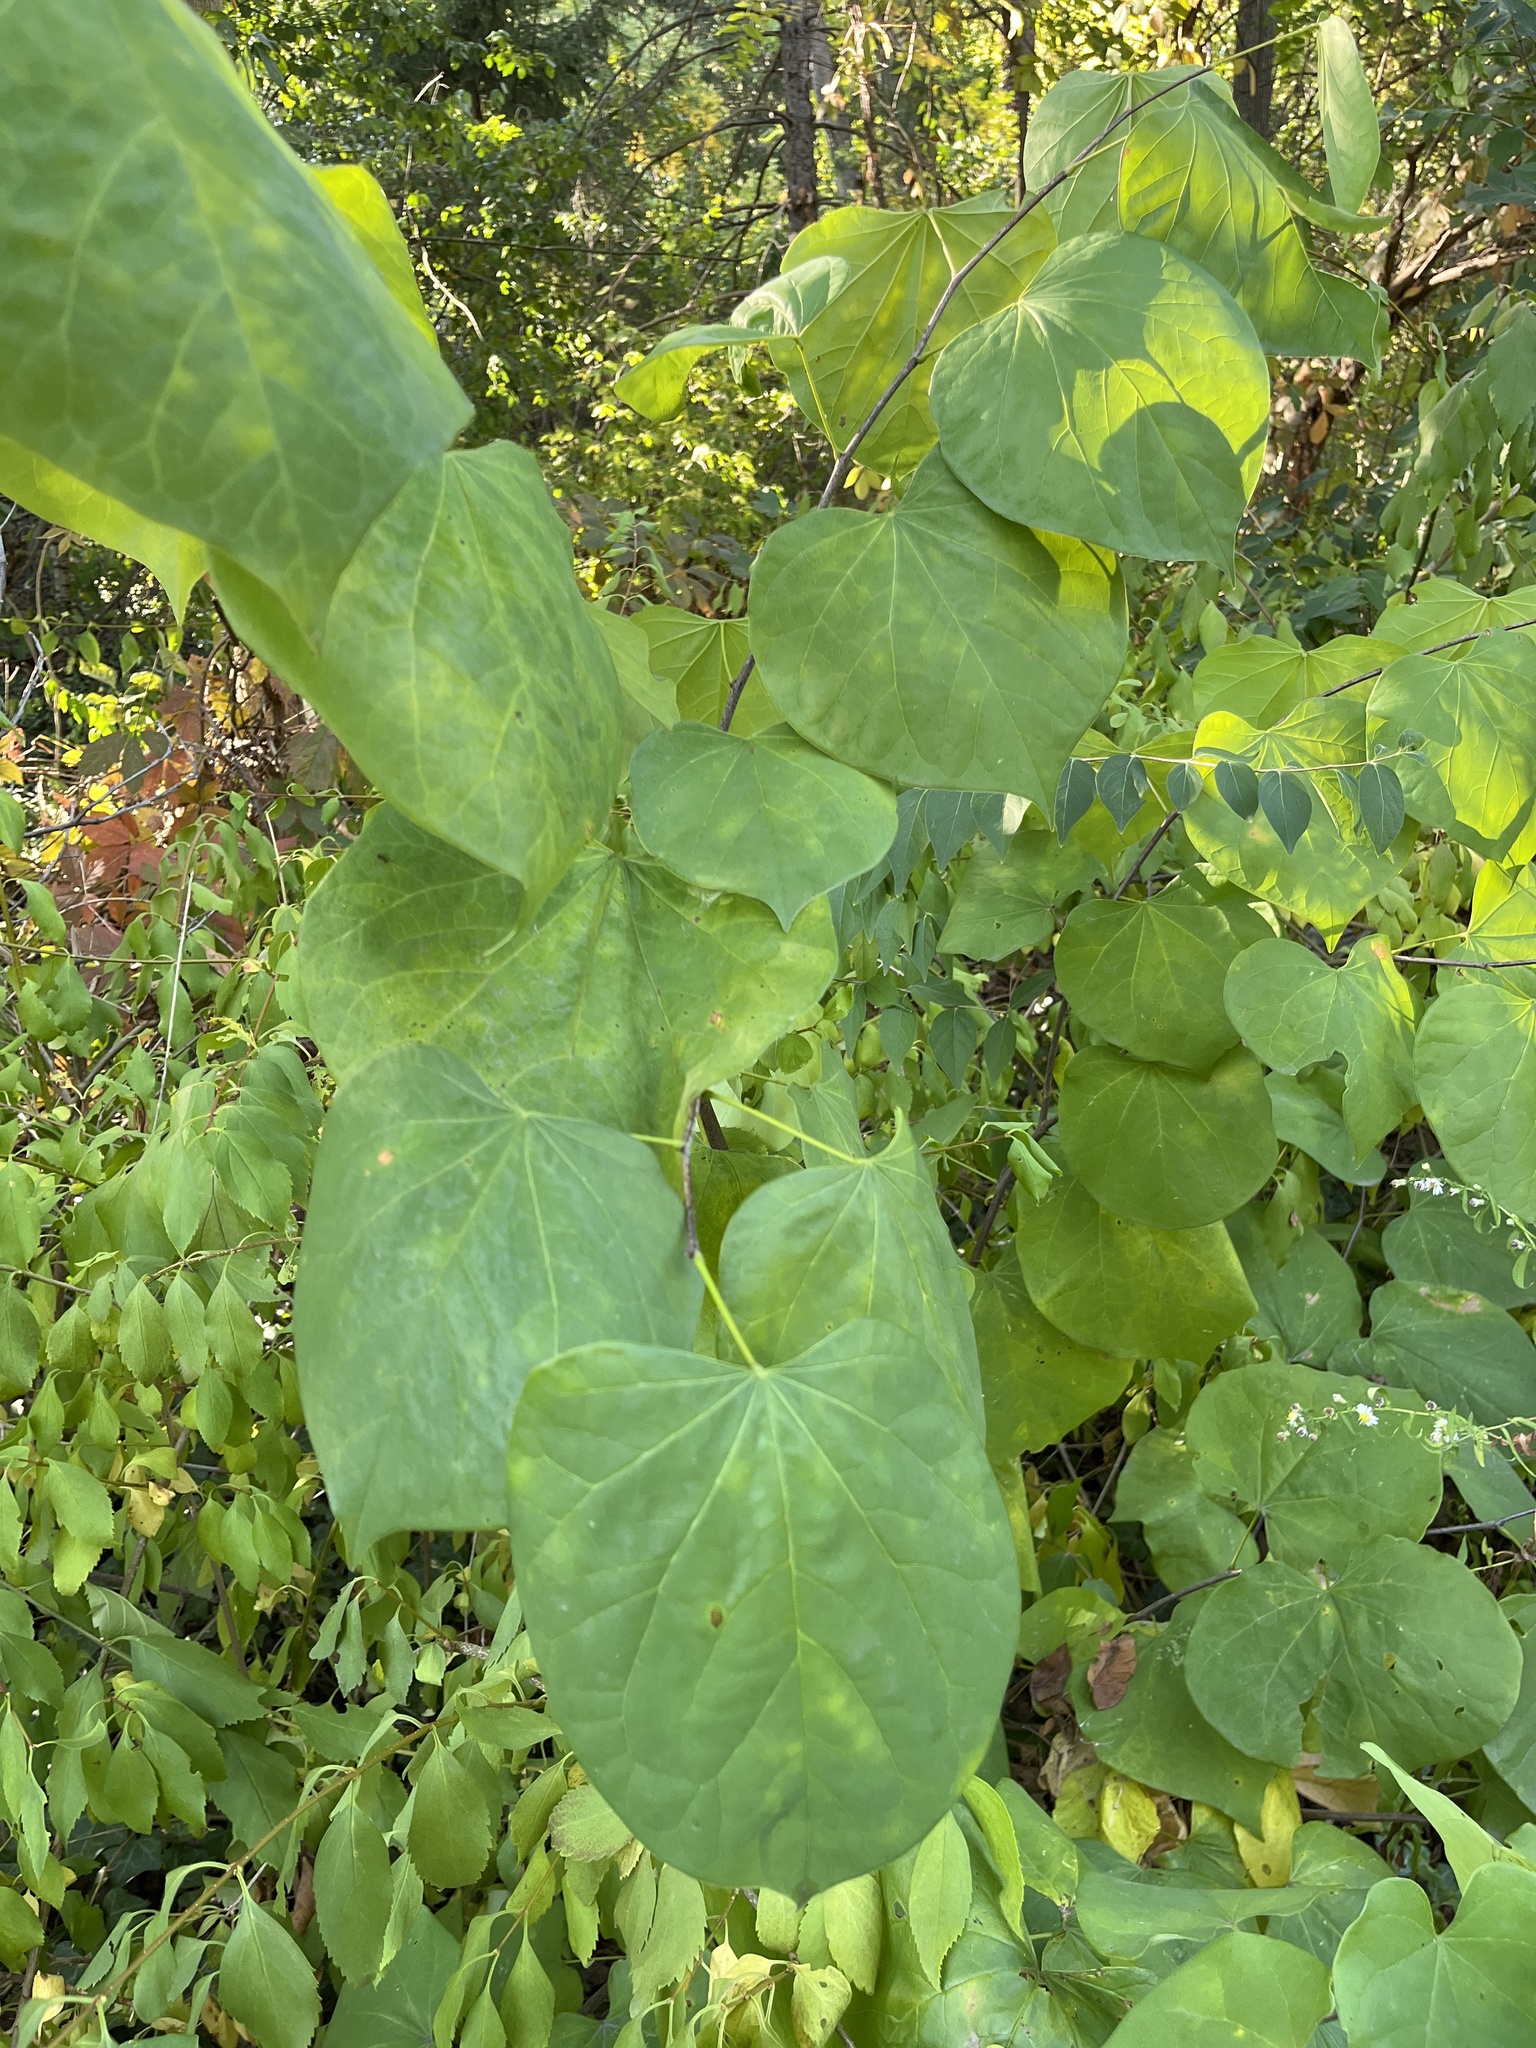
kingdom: Plantae
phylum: Tracheophyta
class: Magnoliopsida
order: Fabales
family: Fabaceae
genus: Cercis
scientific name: Cercis canadensis
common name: Eastern redbud
